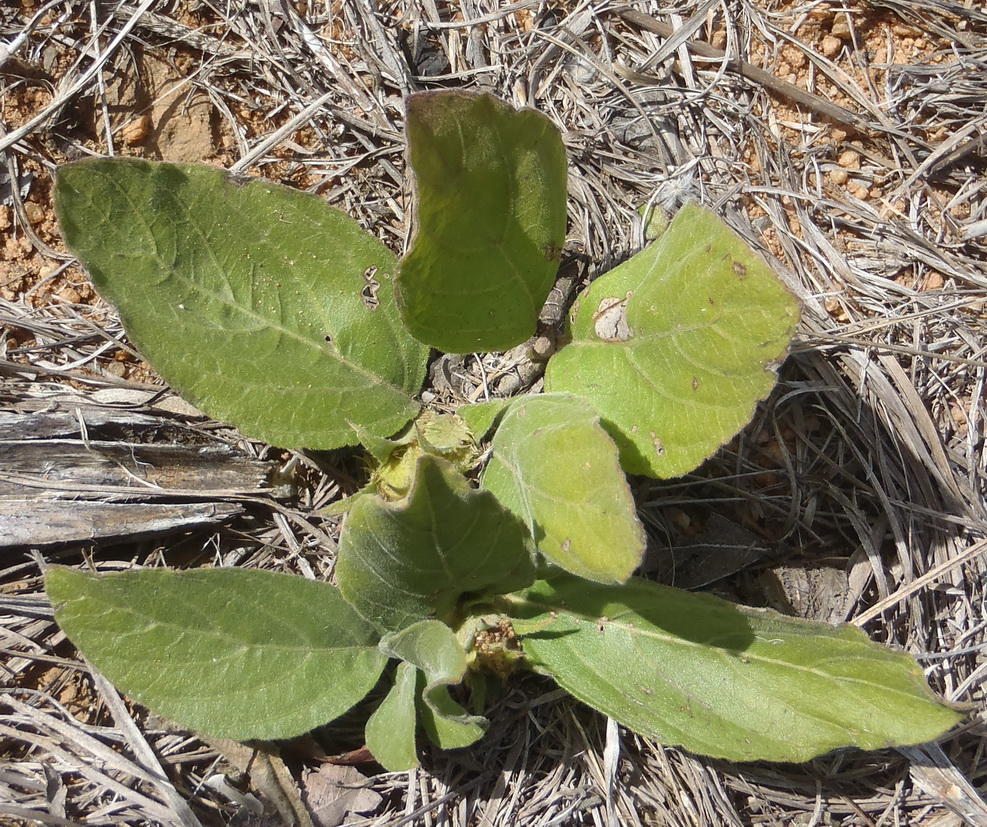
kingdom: Plantae
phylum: Tracheophyta
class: Magnoliopsida
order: Lamiales
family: Acanthaceae
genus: Crabbea
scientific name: Crabbea cirsioides
